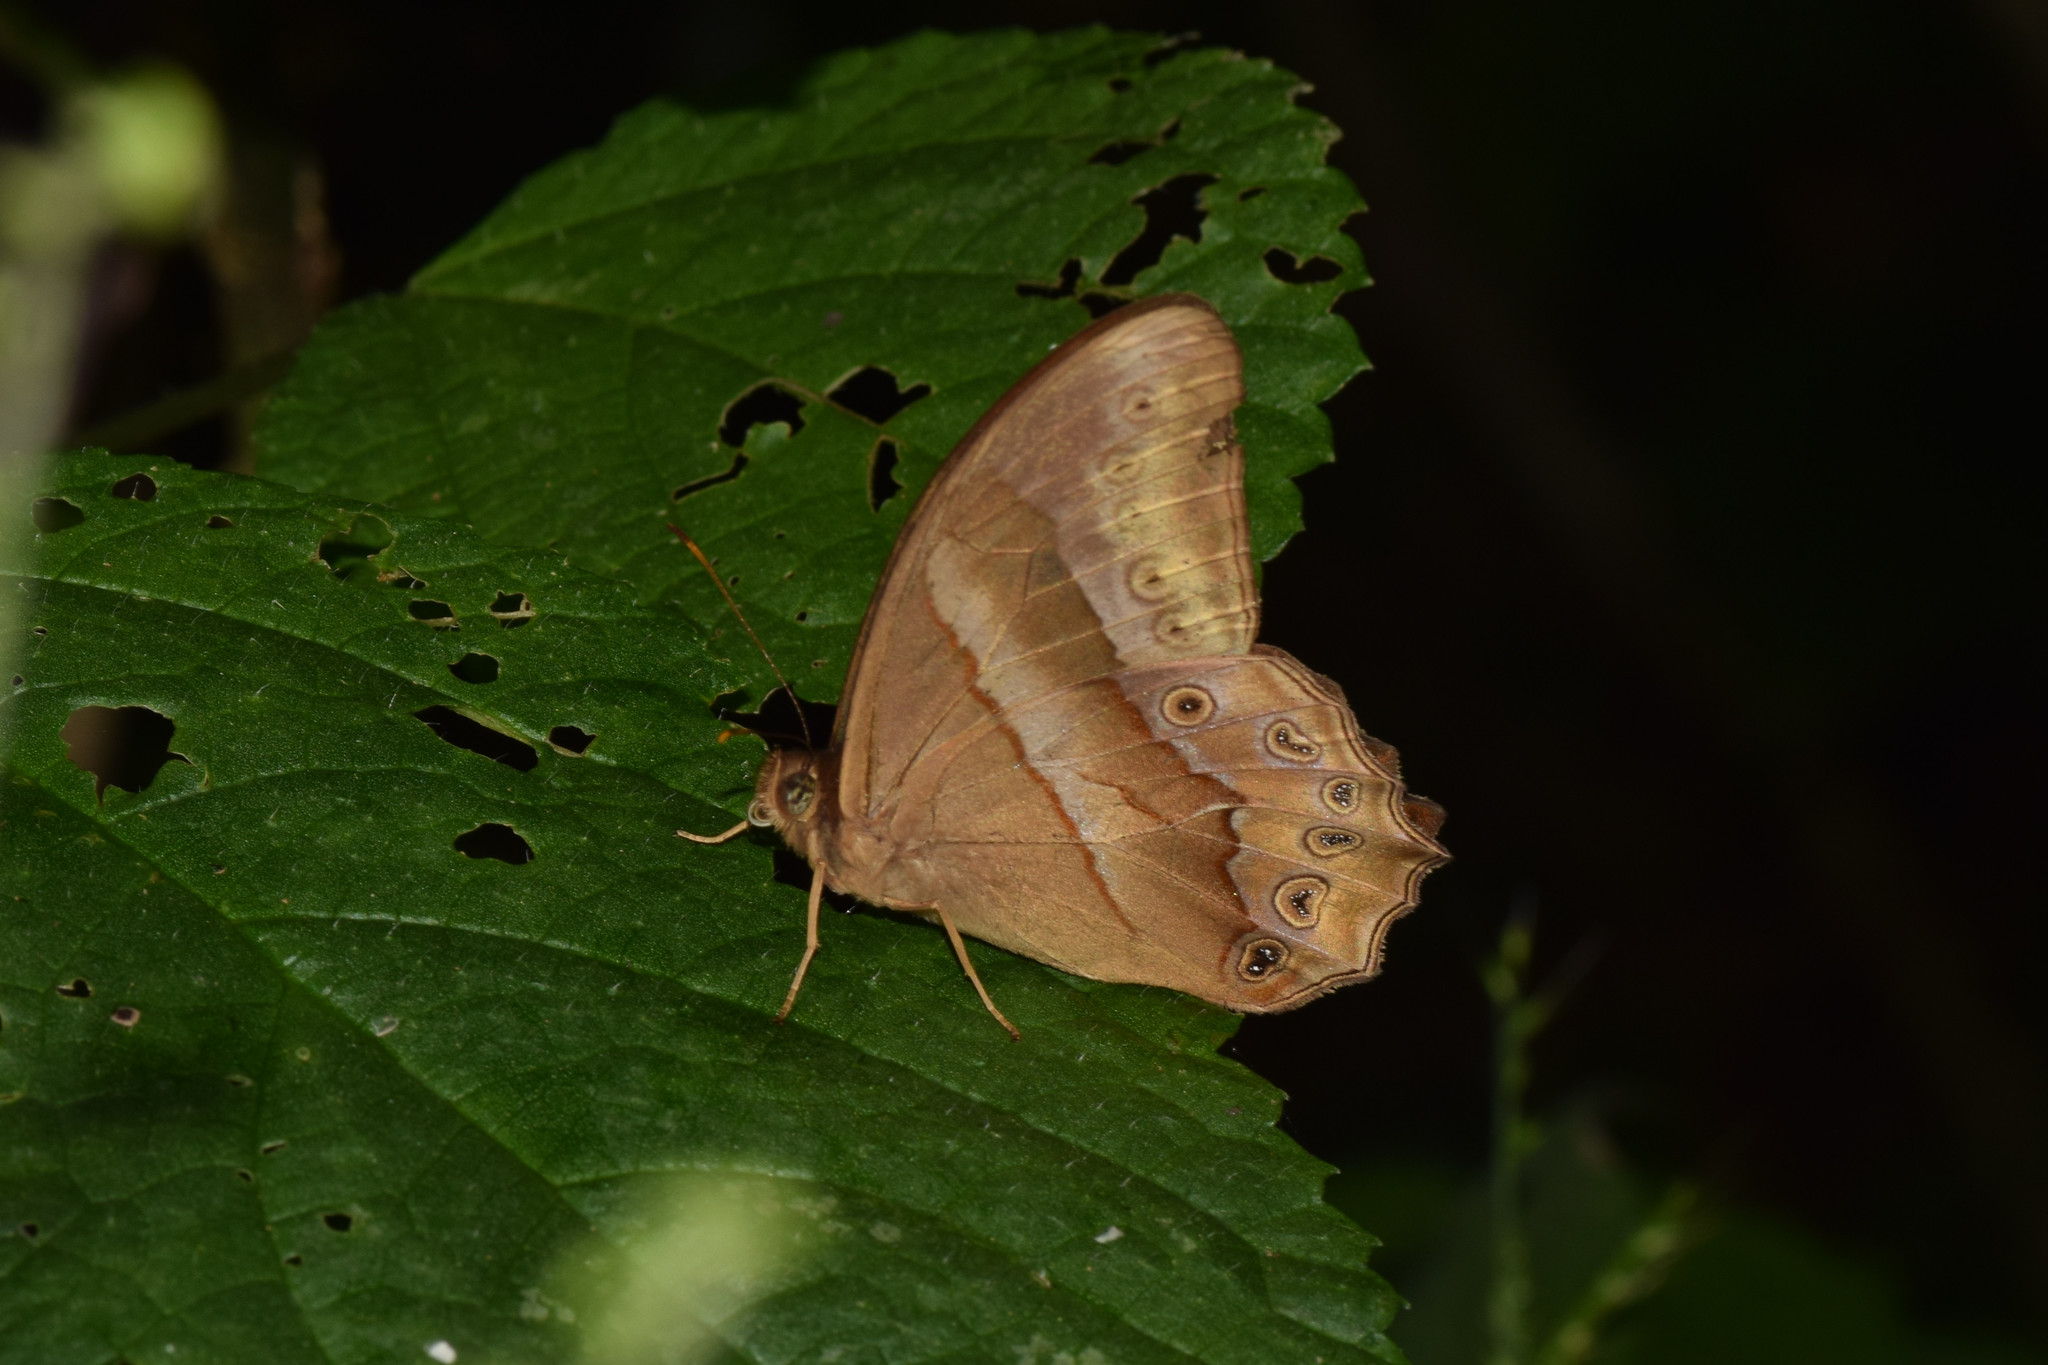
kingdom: Animalia
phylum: Arthropoda
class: Insecta
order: Lepidoptera
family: Nymphalidae
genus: Lethe
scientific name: Lethe mekara
